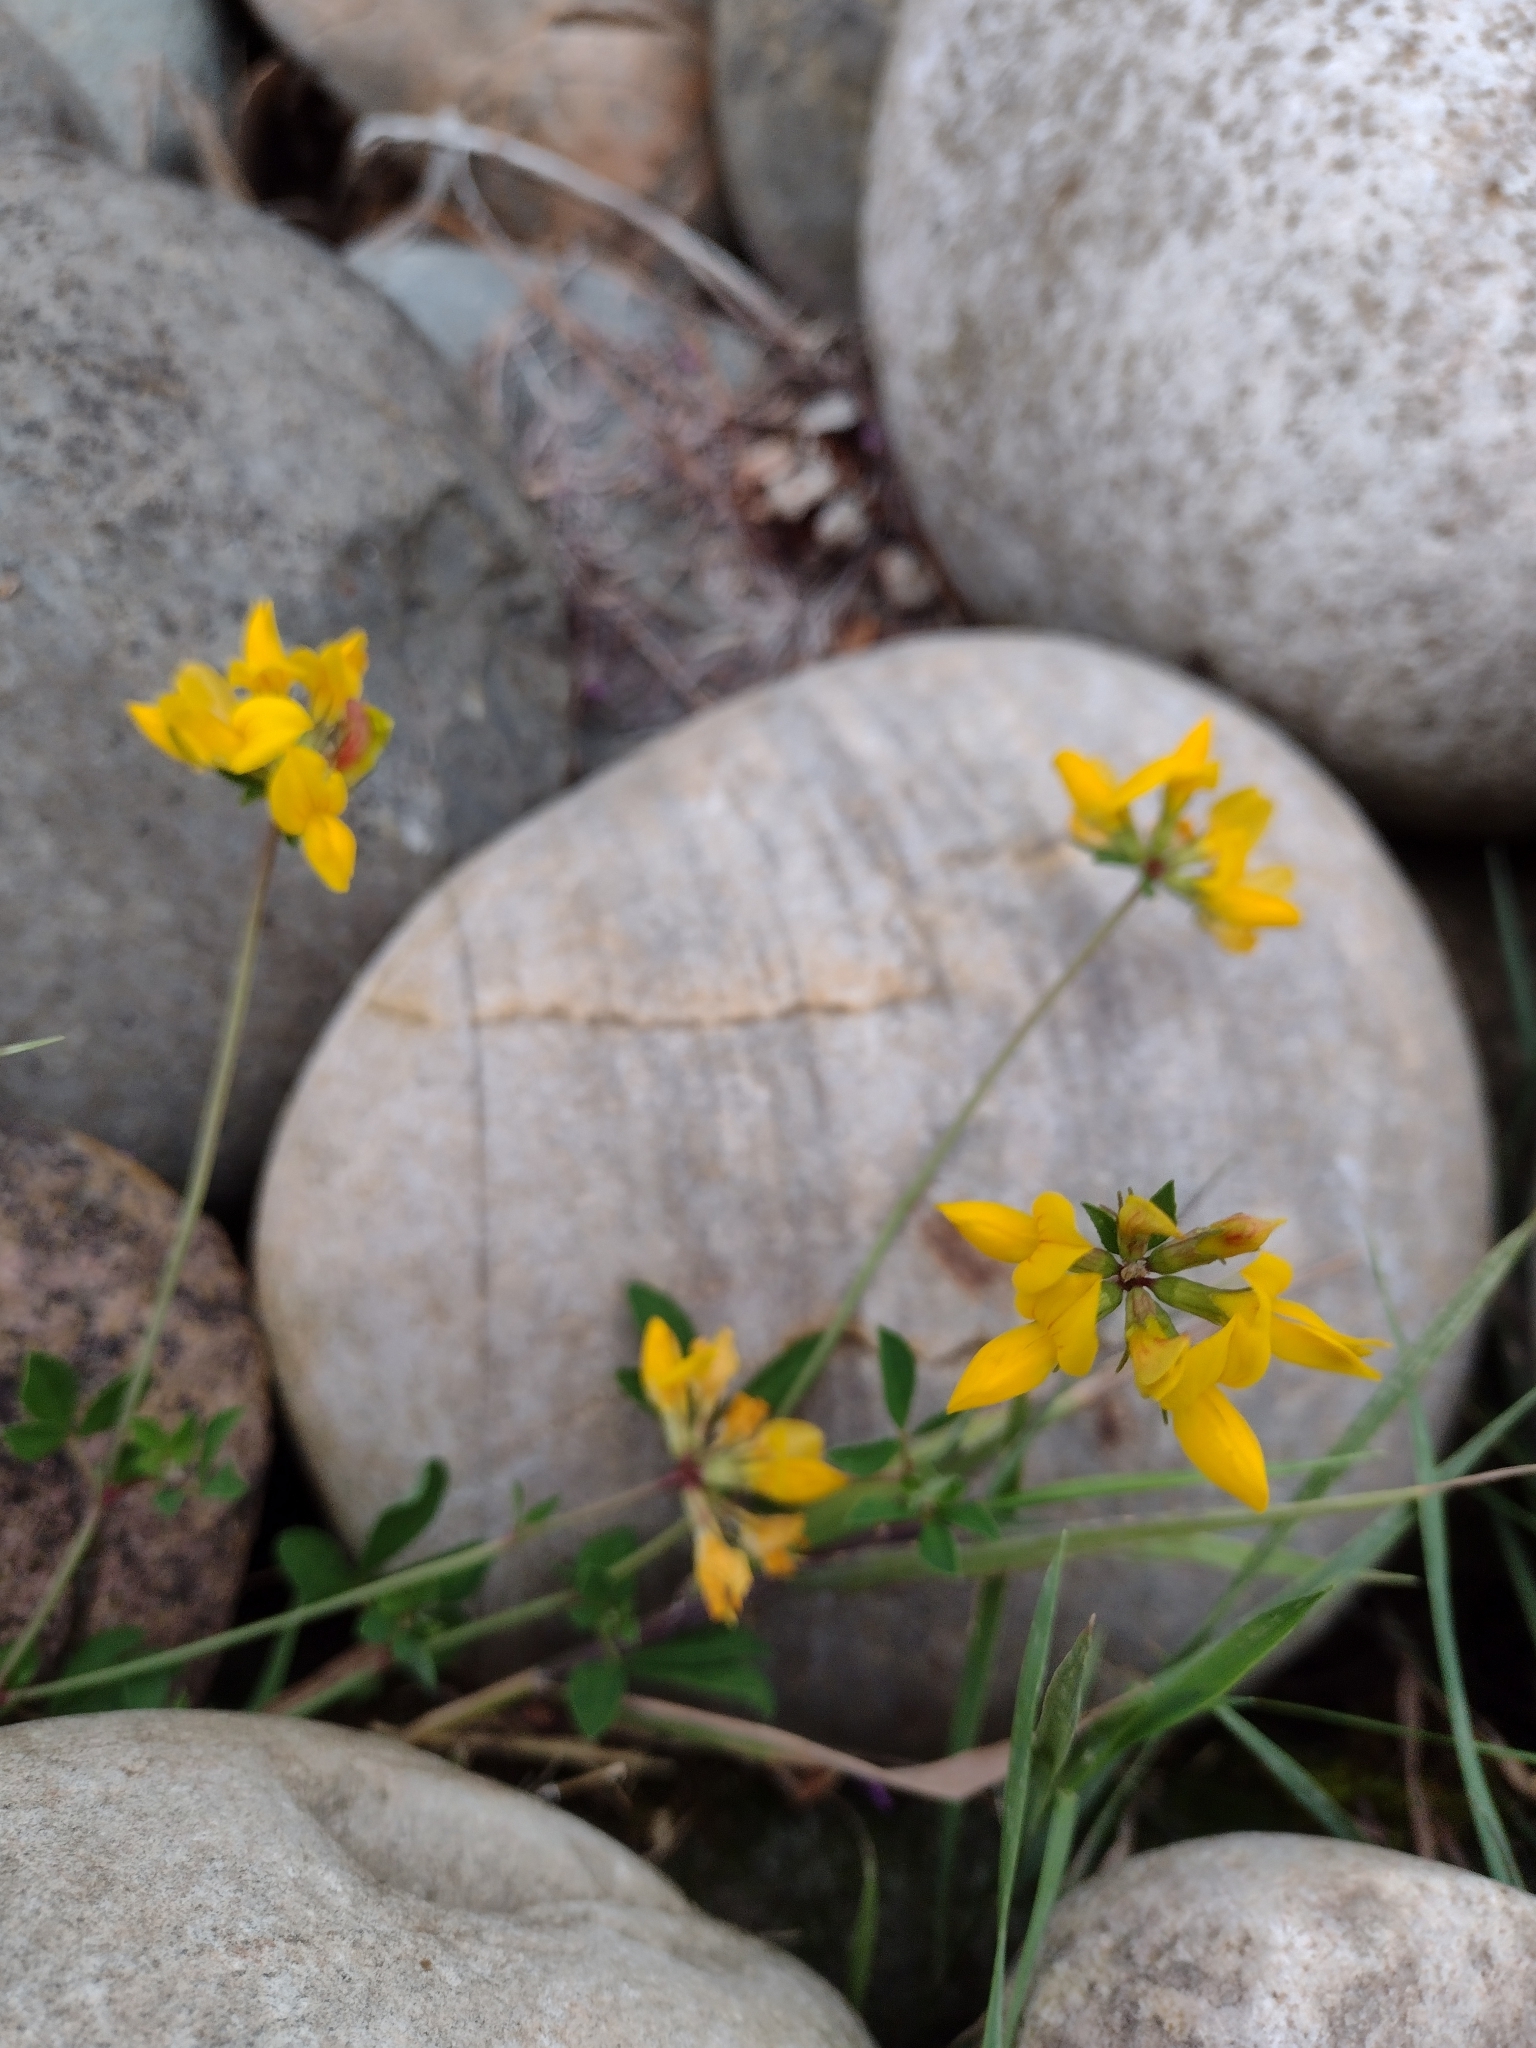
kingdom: Plantae
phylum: Tracheophyta
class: Magnoliopsida
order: Fabales
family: Fabaceae
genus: Lotus
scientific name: Lotus pedunculatus
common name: Greater birdsfoot-trefoil
